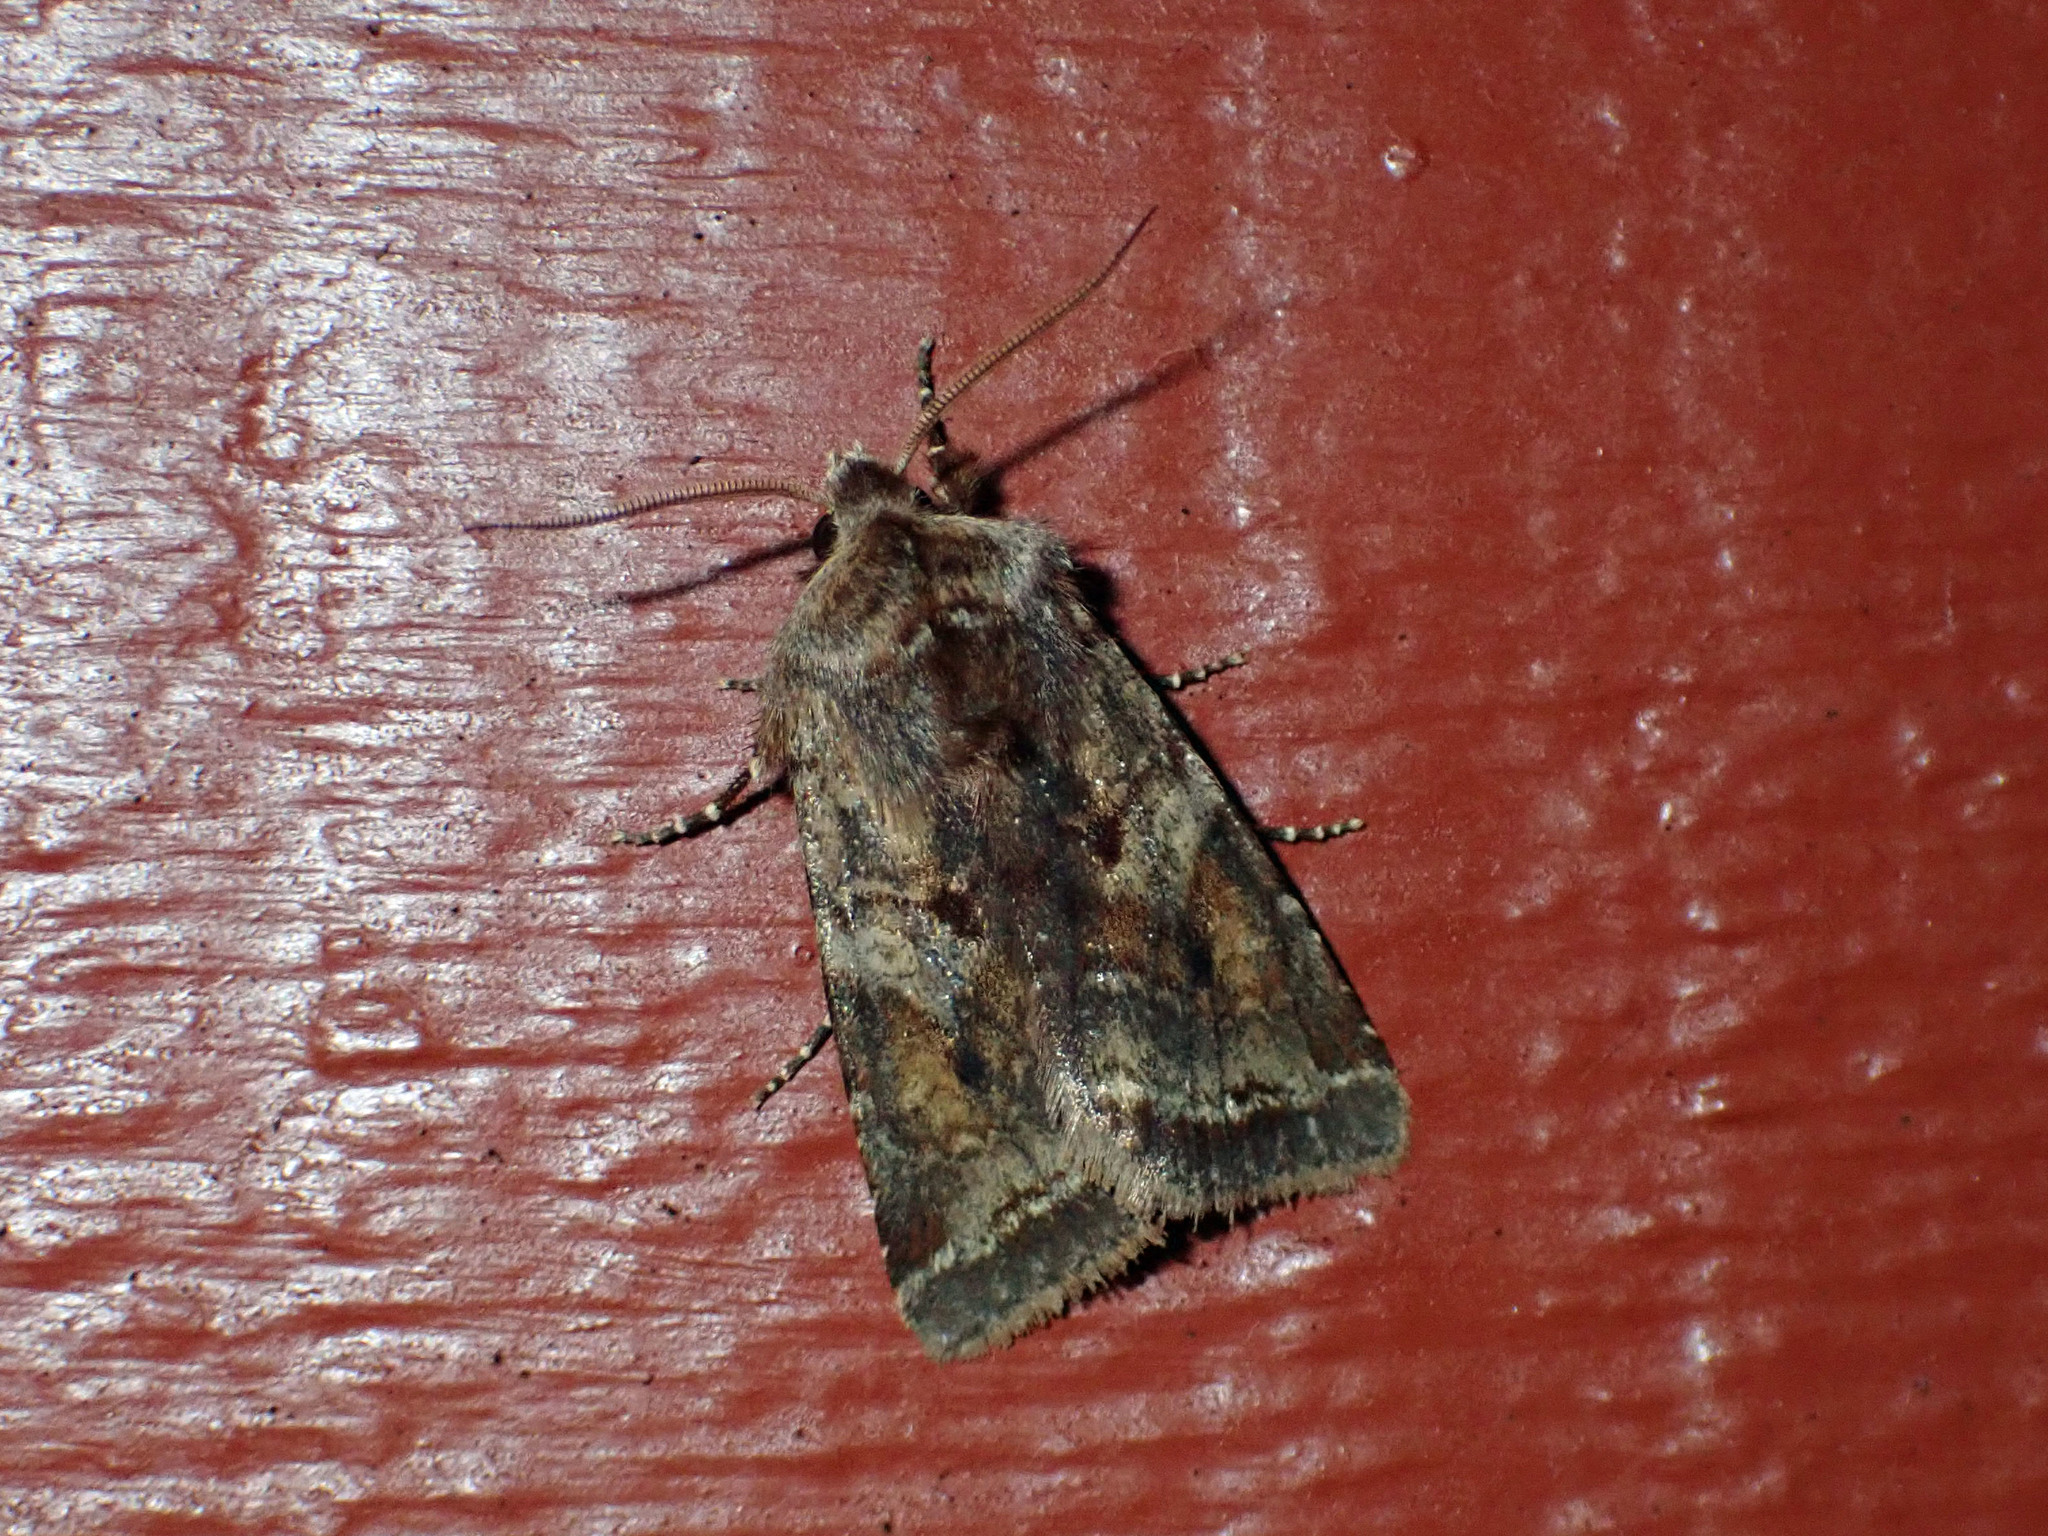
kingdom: Animalia
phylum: Arthropoda
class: Insecta
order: Lepidoptera
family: Noctuidae
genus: Cerastis
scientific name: Cerastis salicarum
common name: Willow dart
